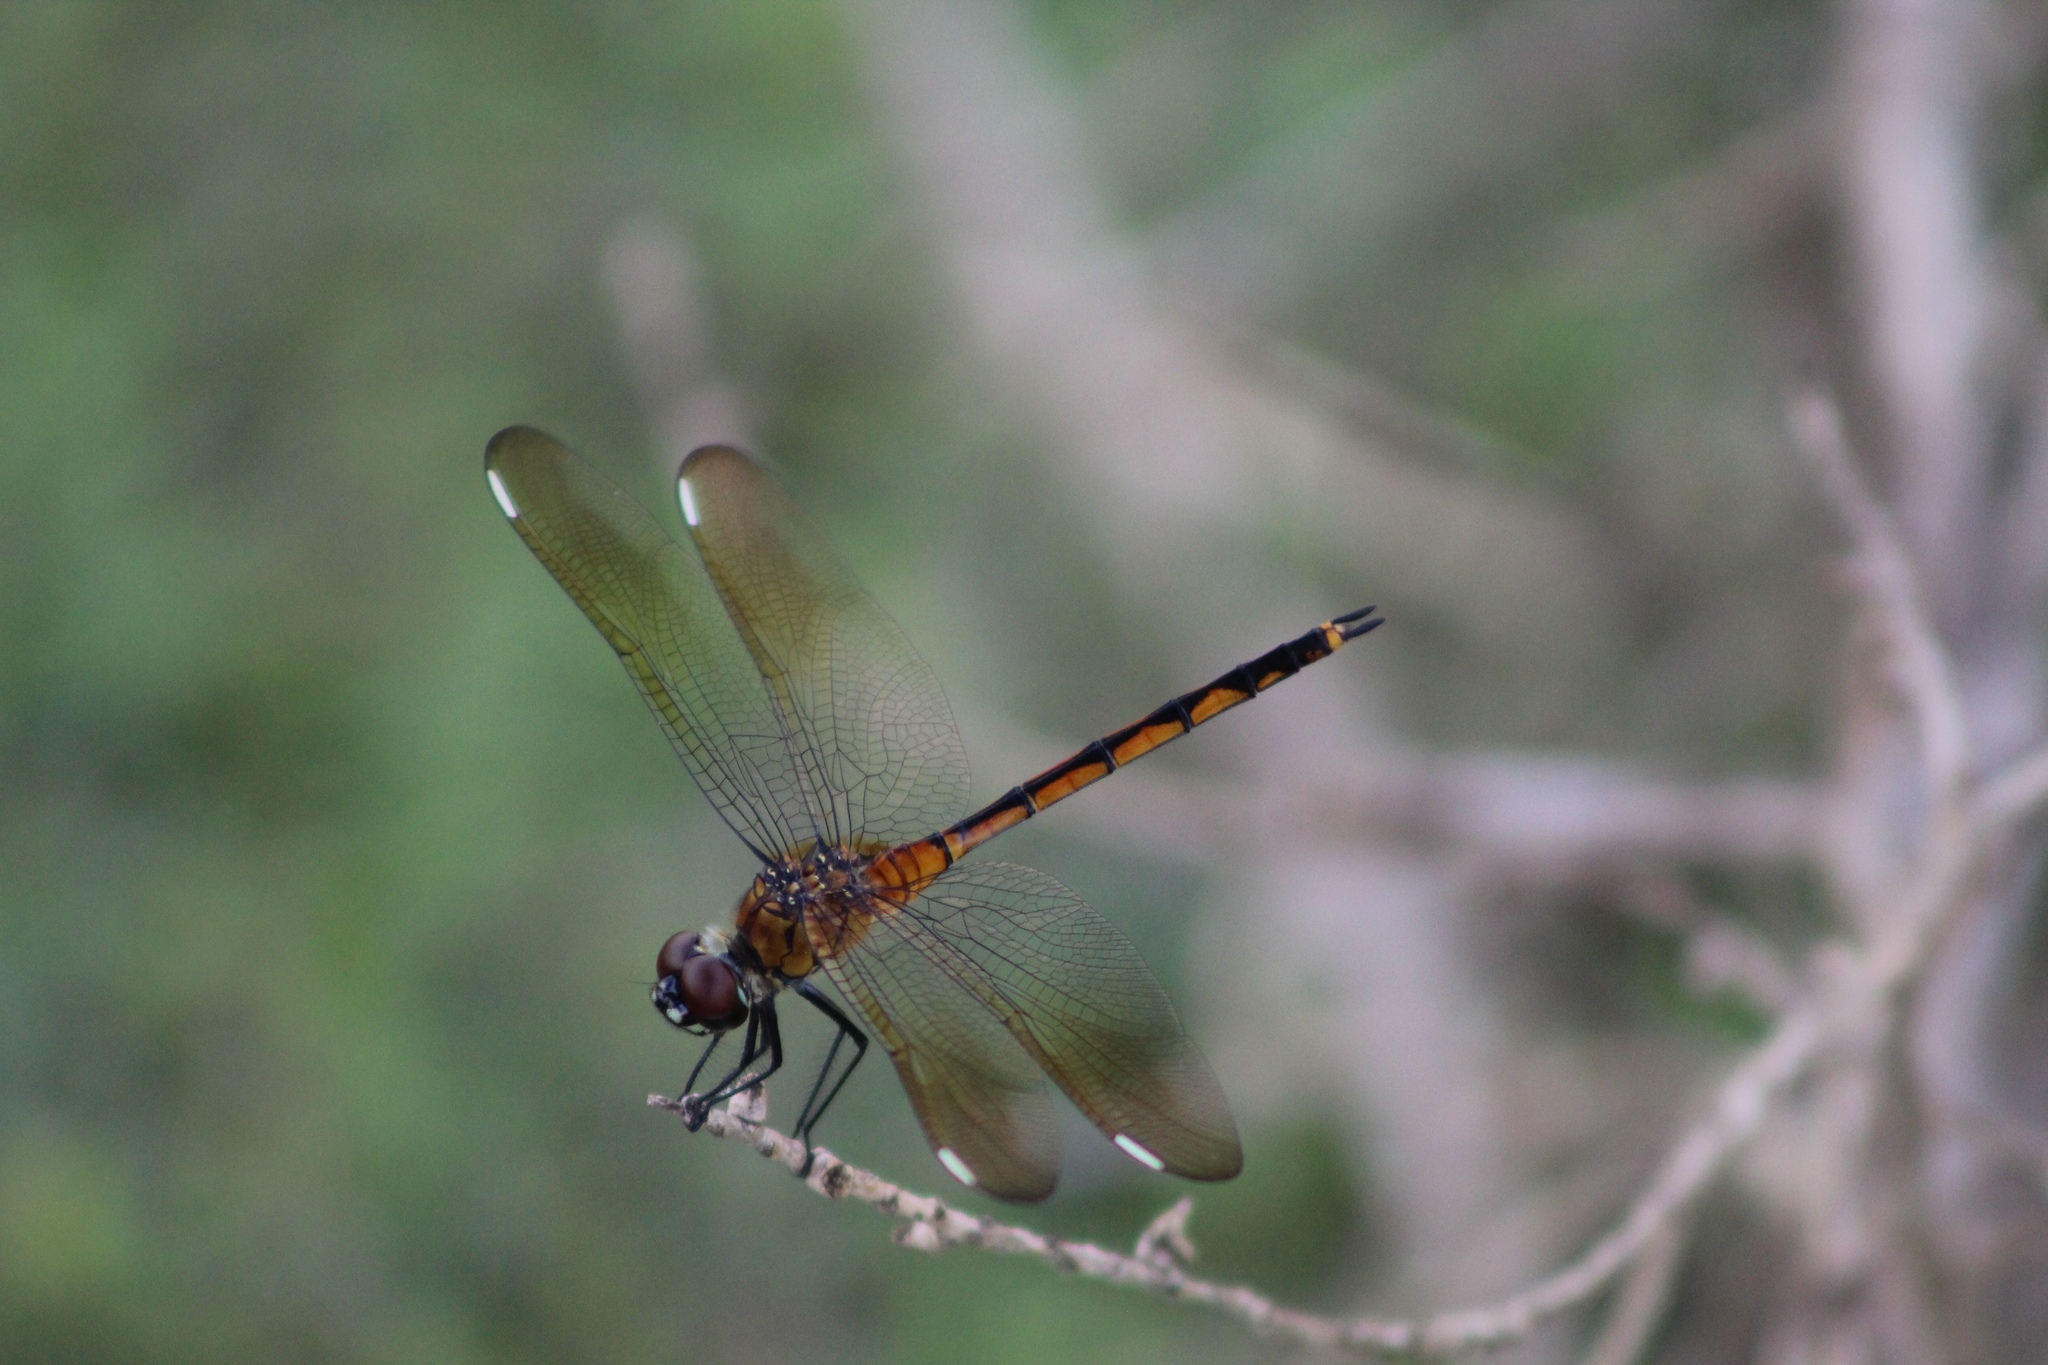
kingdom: Animalia
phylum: Arthropoda
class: Insecta
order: Odonata
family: Libellulidae
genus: Brachymesia
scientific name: Brachymesia gravida
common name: Four-spotted pennant
